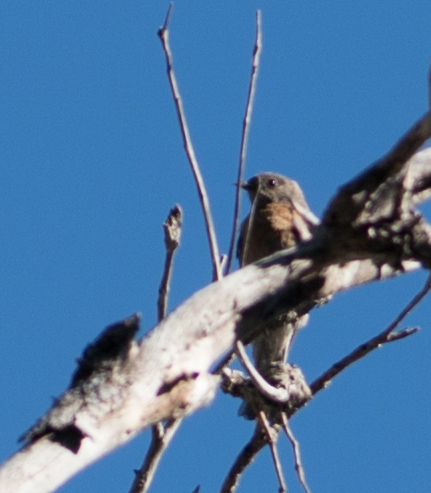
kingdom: Animalia
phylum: Chordata
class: Aves
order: Passeriformes
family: Turdidae
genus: Sialia
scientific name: Sialia mexicana
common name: Western bluebird
